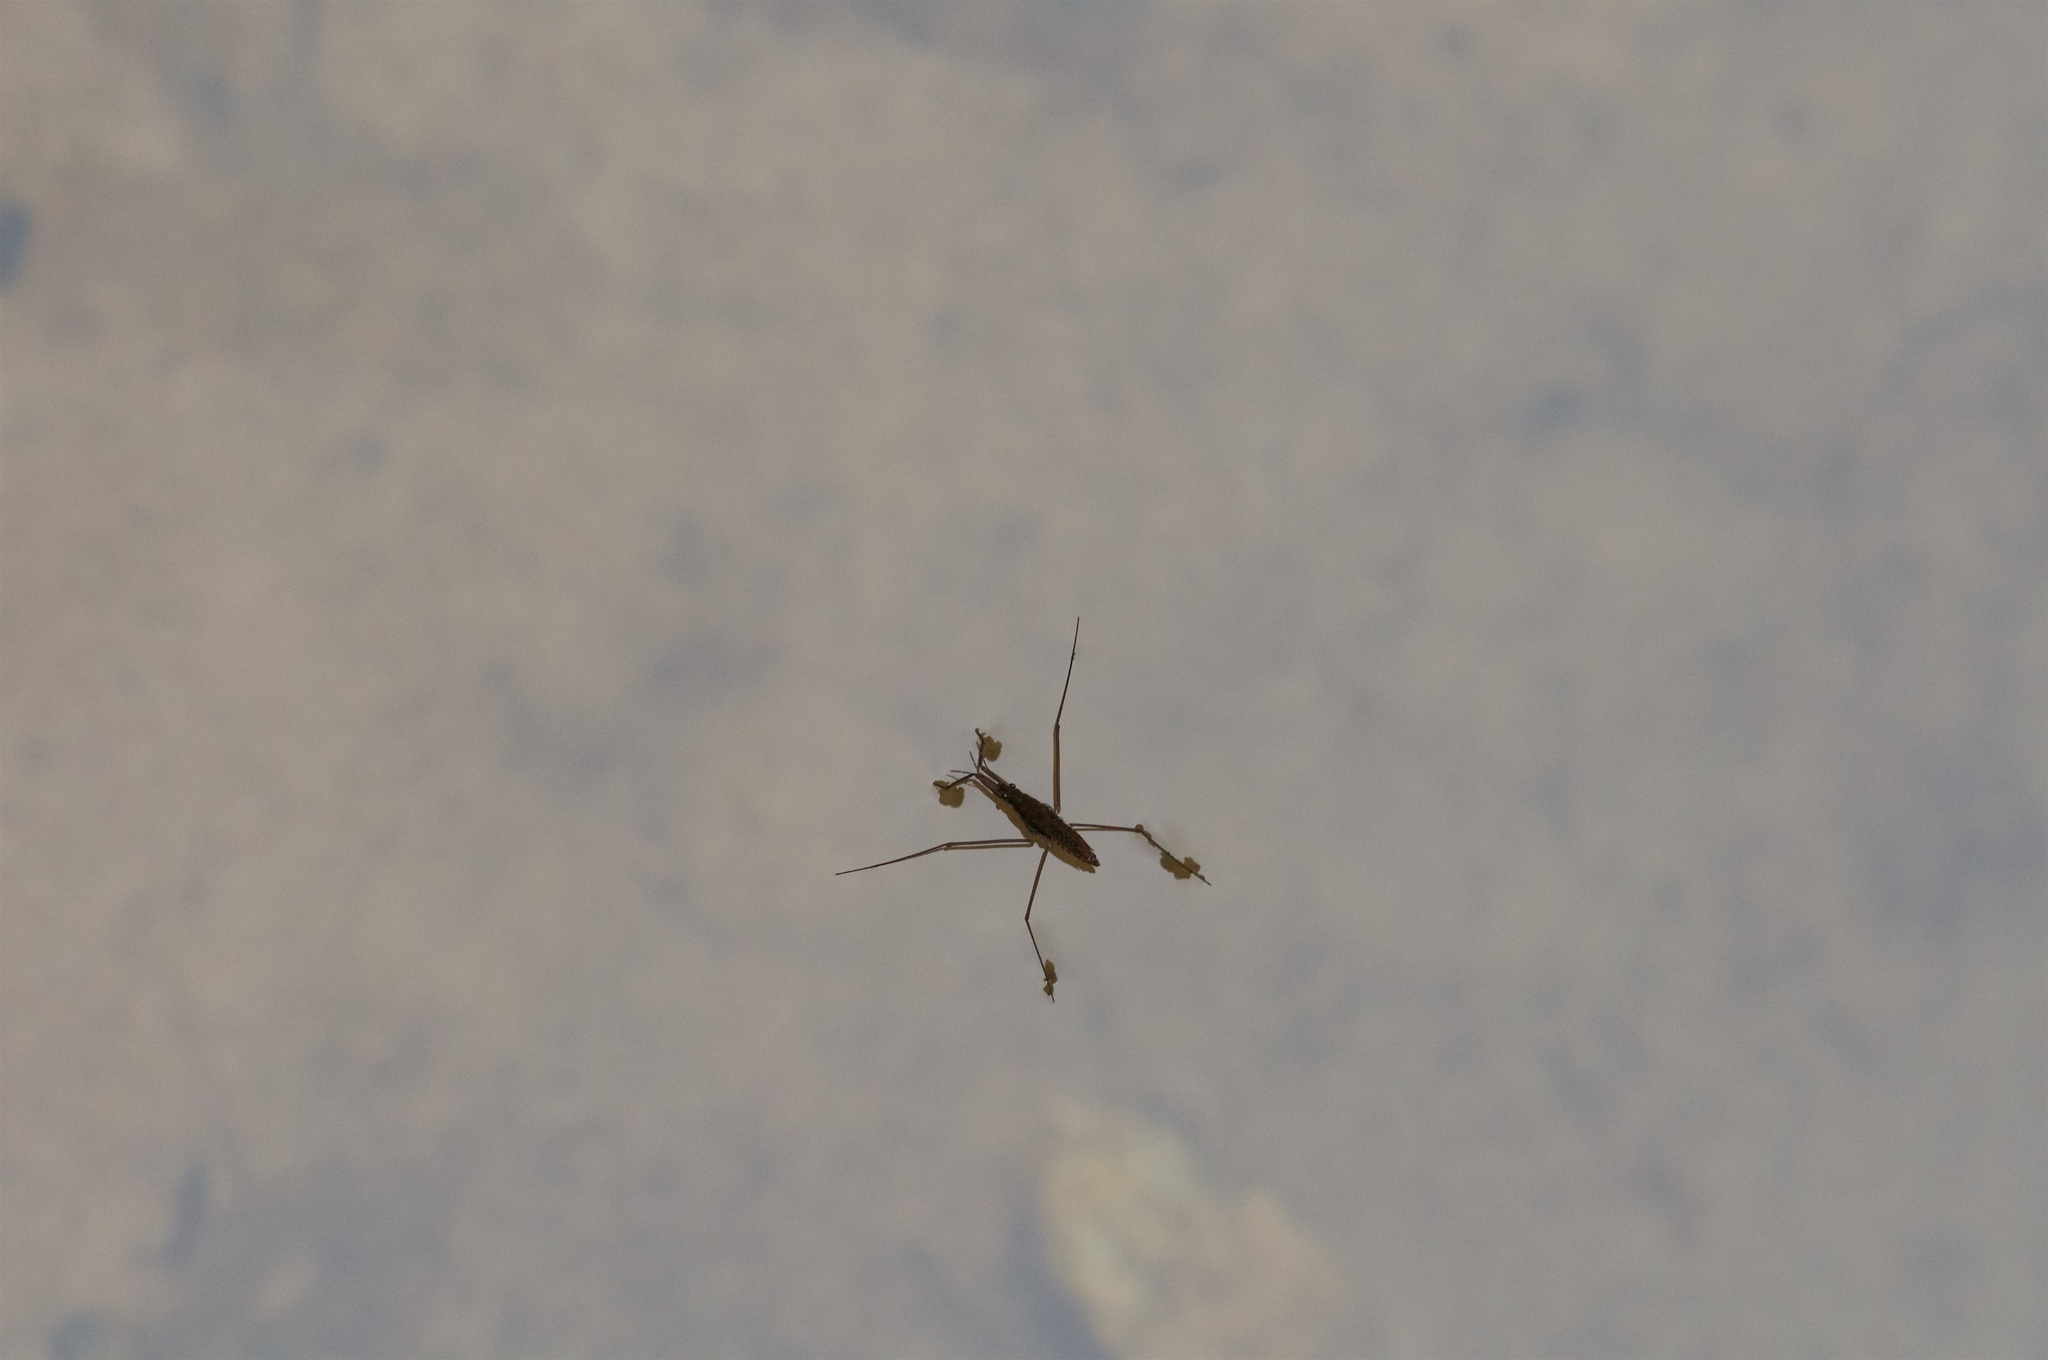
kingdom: Animalia
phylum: Arthropoda
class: Insecta
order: Hemiptera
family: Gerridae
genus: Aquarius
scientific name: Aquarius remigis
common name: Common water strider
